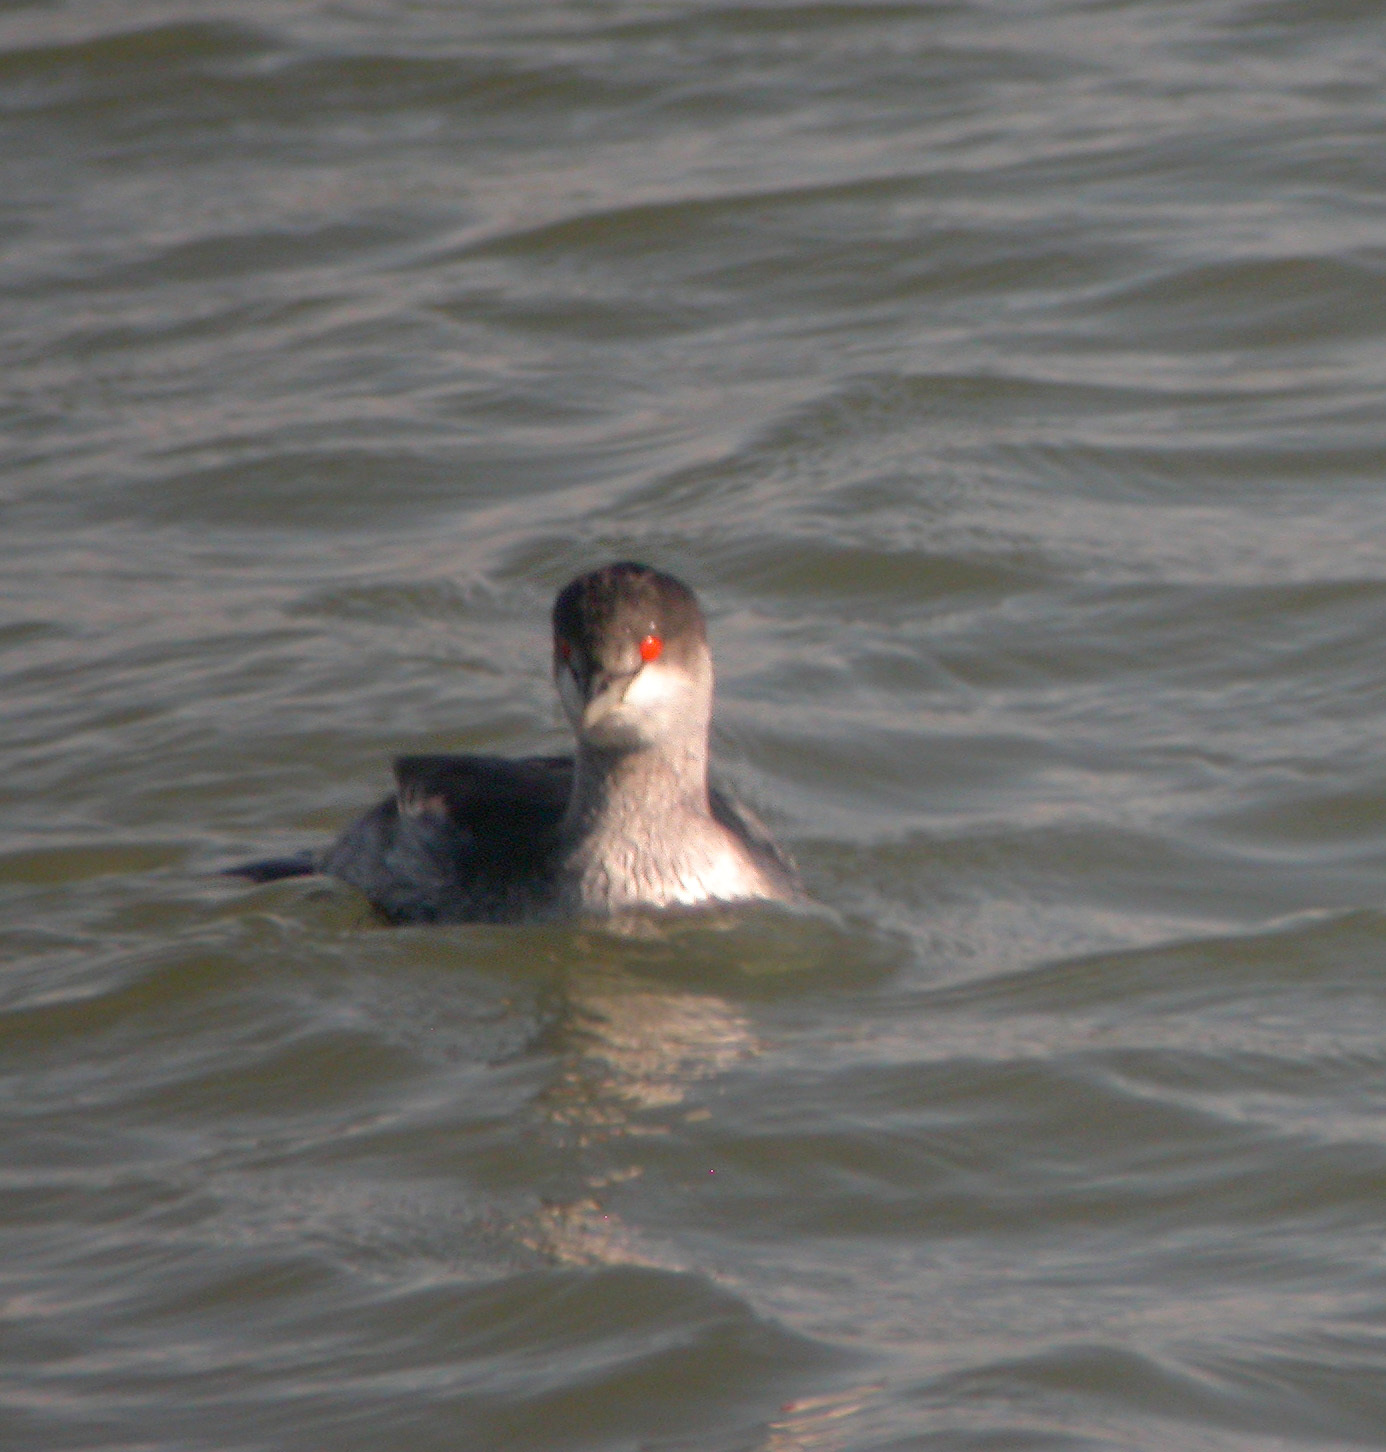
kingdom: Animalia
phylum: Chordata
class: Aves
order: Podicipediformes
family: Podicipedidae
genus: Podiceps
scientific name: Podiceps nigricollis
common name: Black-necked grebe
